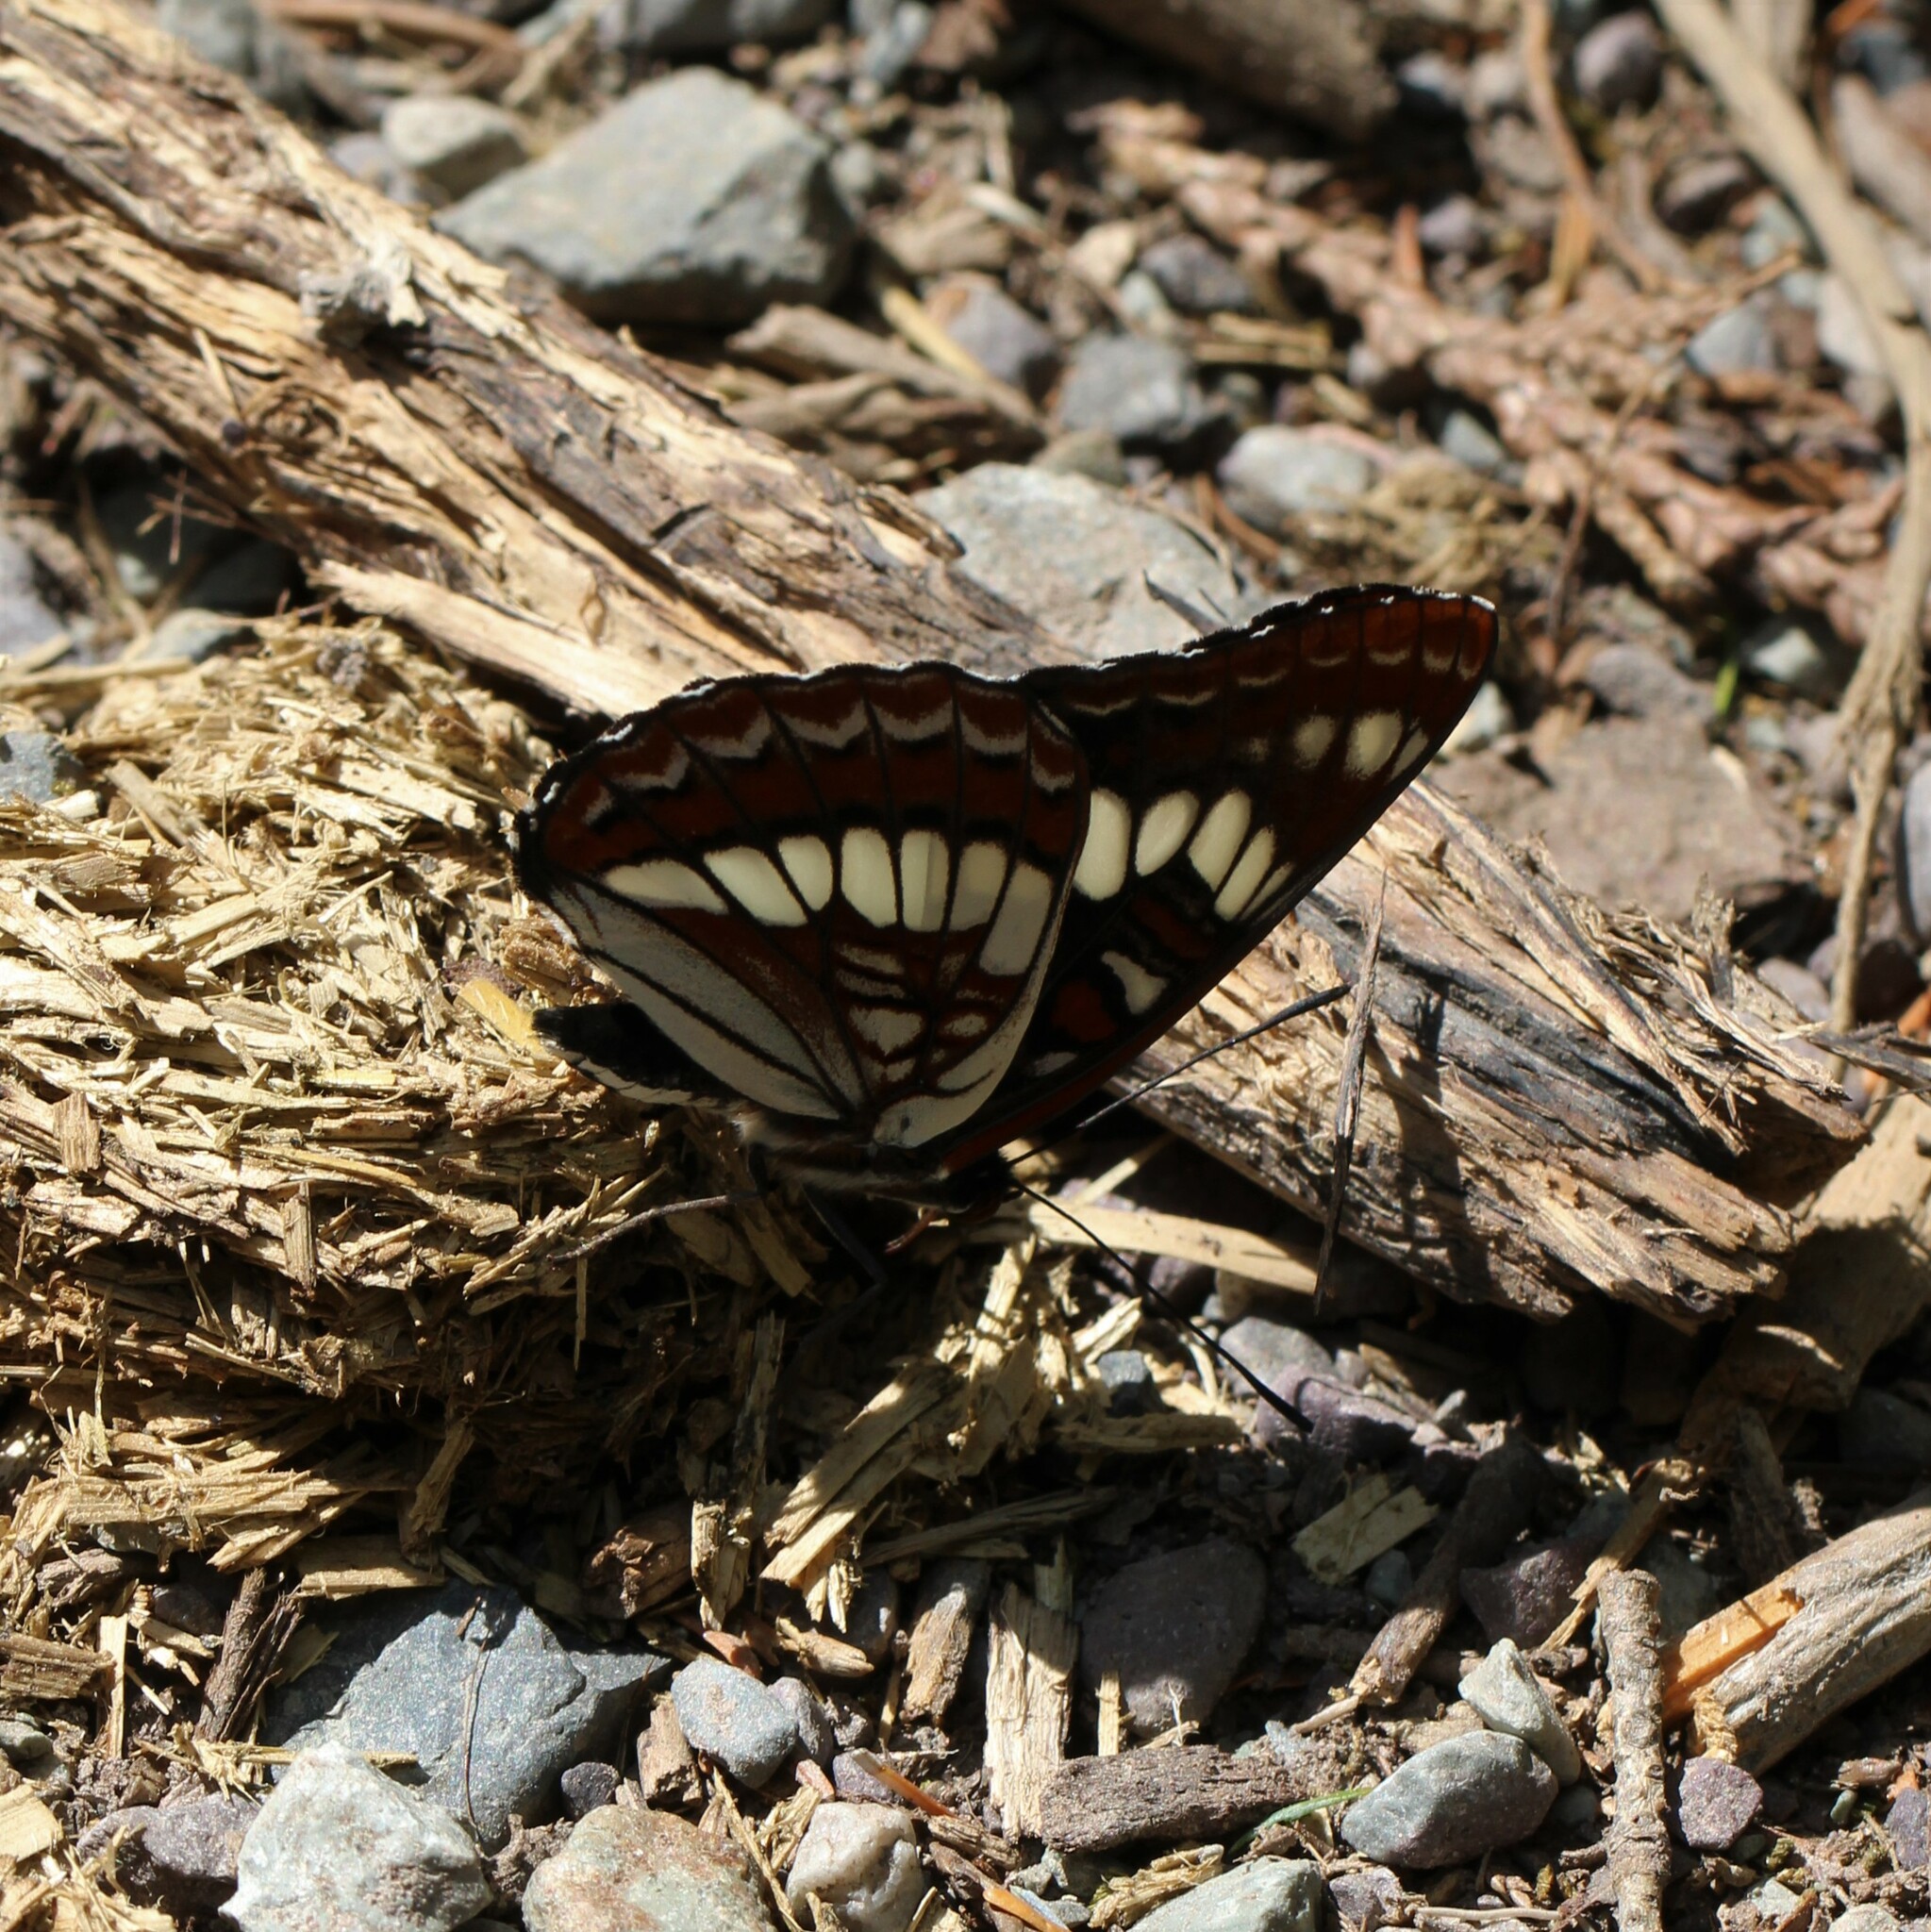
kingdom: Animalia
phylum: Arthropoda
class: Insecta
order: Lepidoptera
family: Nymphalidae
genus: Limenitis
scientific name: Limenitis lorquini
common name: Lorquin's admiral
